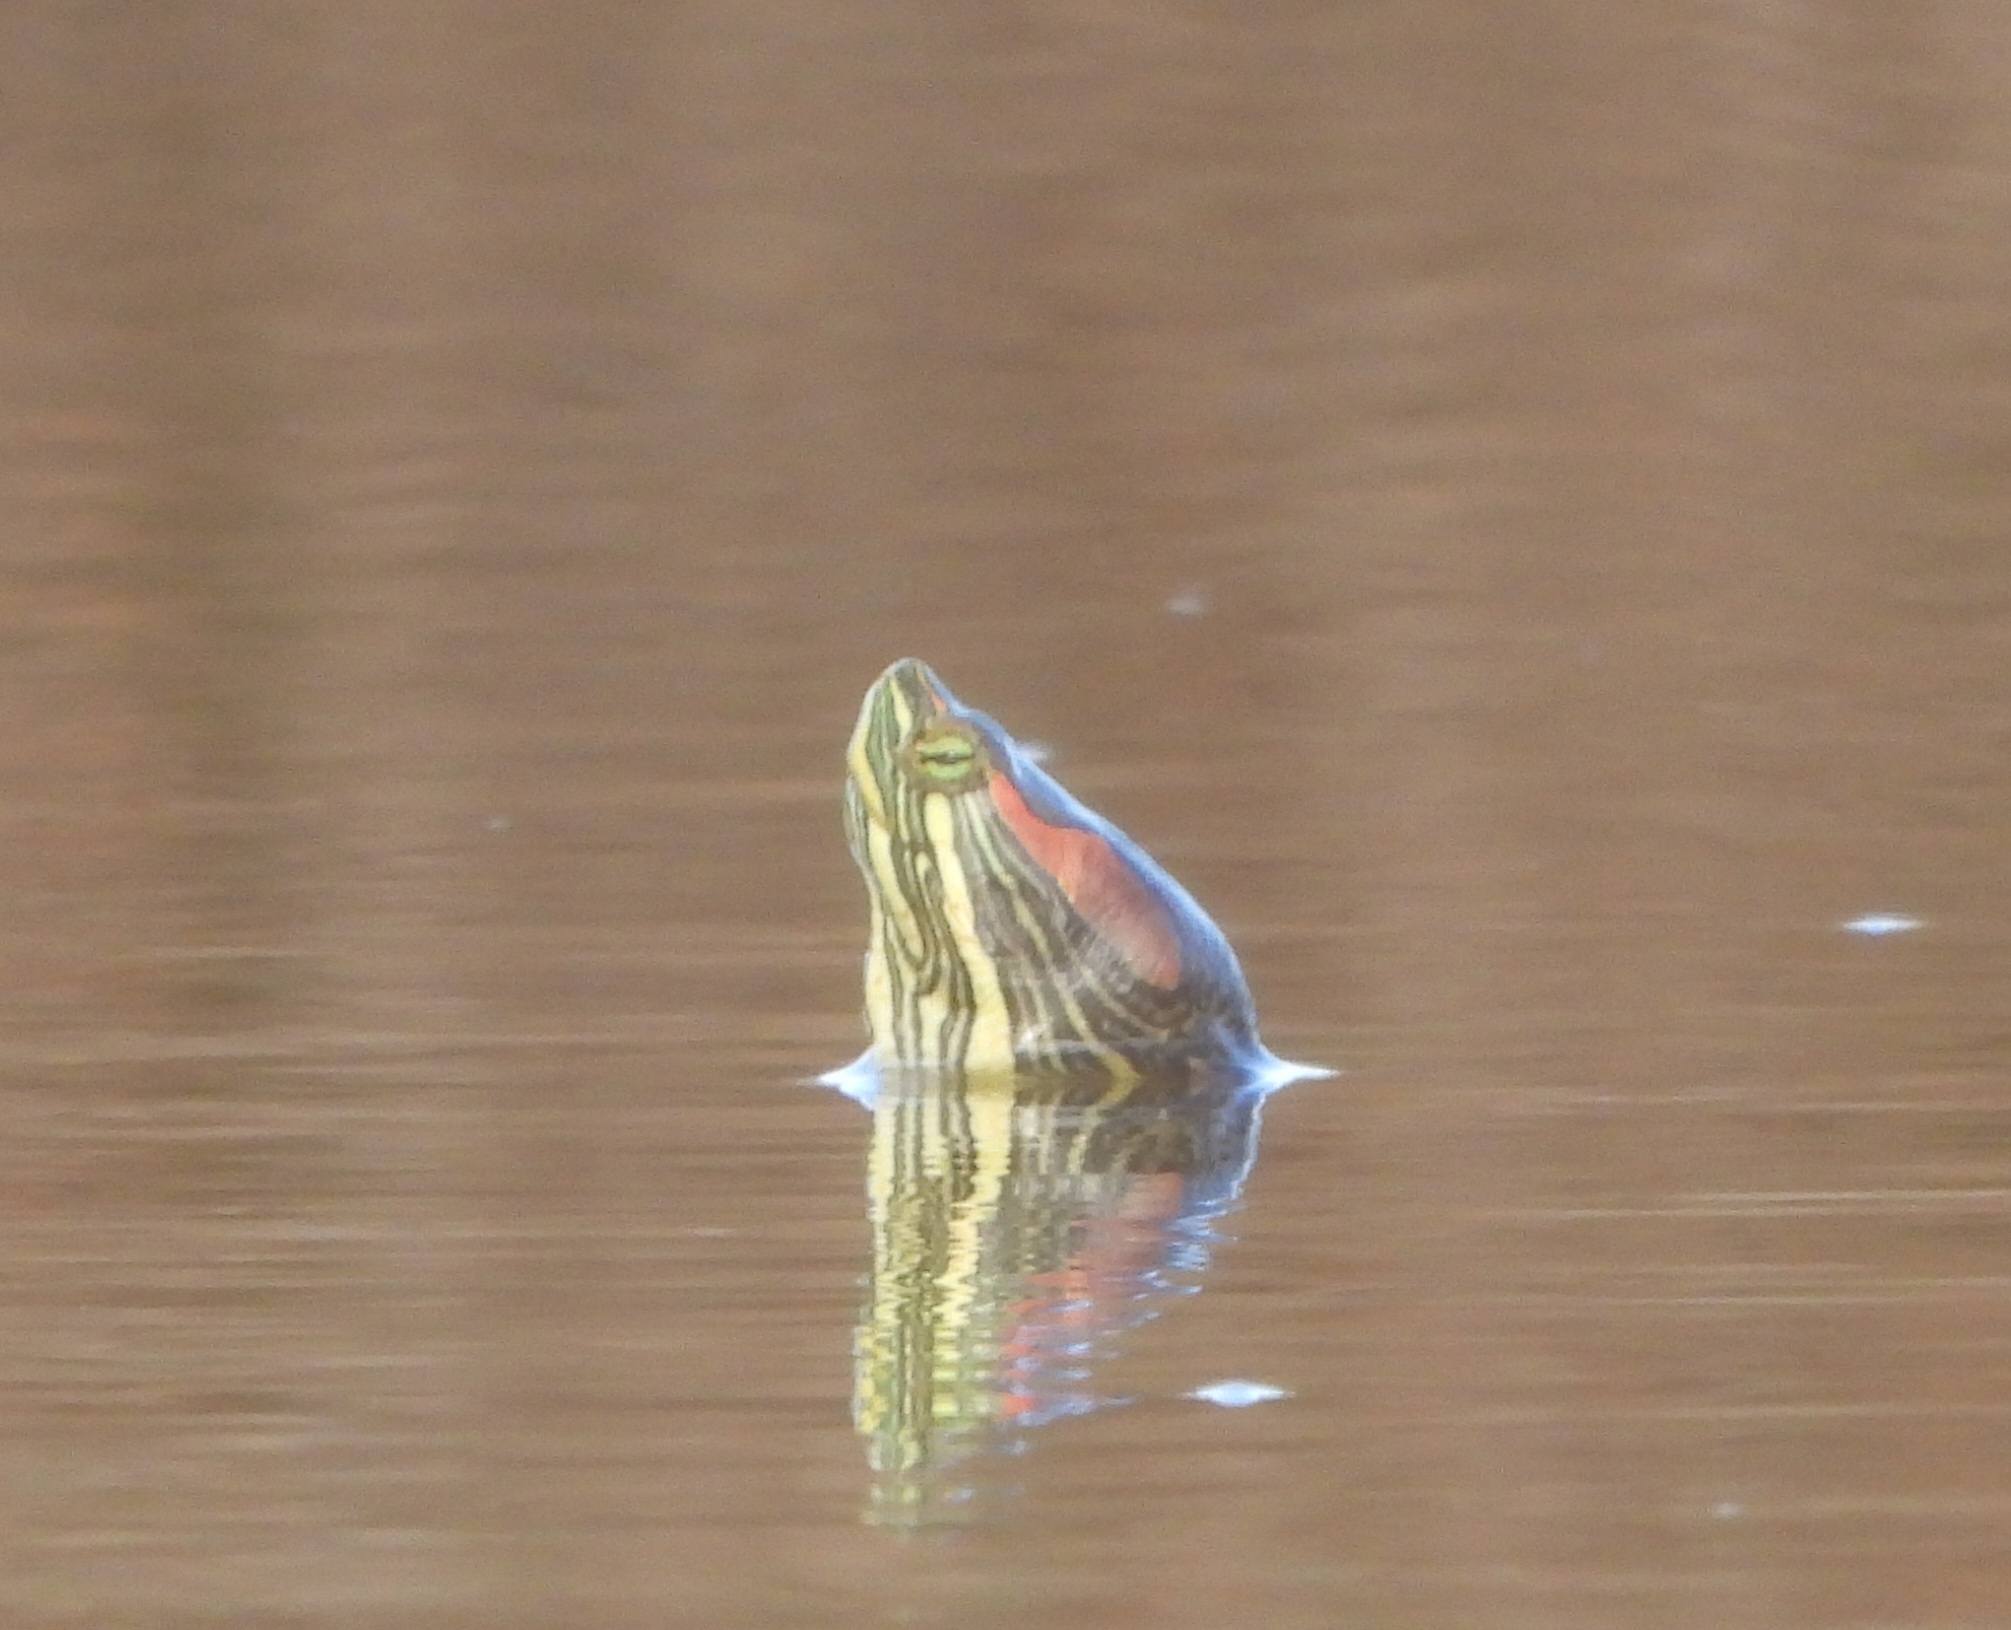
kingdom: Animalia
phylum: Chordata
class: Testudines
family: Emydidae
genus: Trachemys
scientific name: Trachemys scripta
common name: Slider
